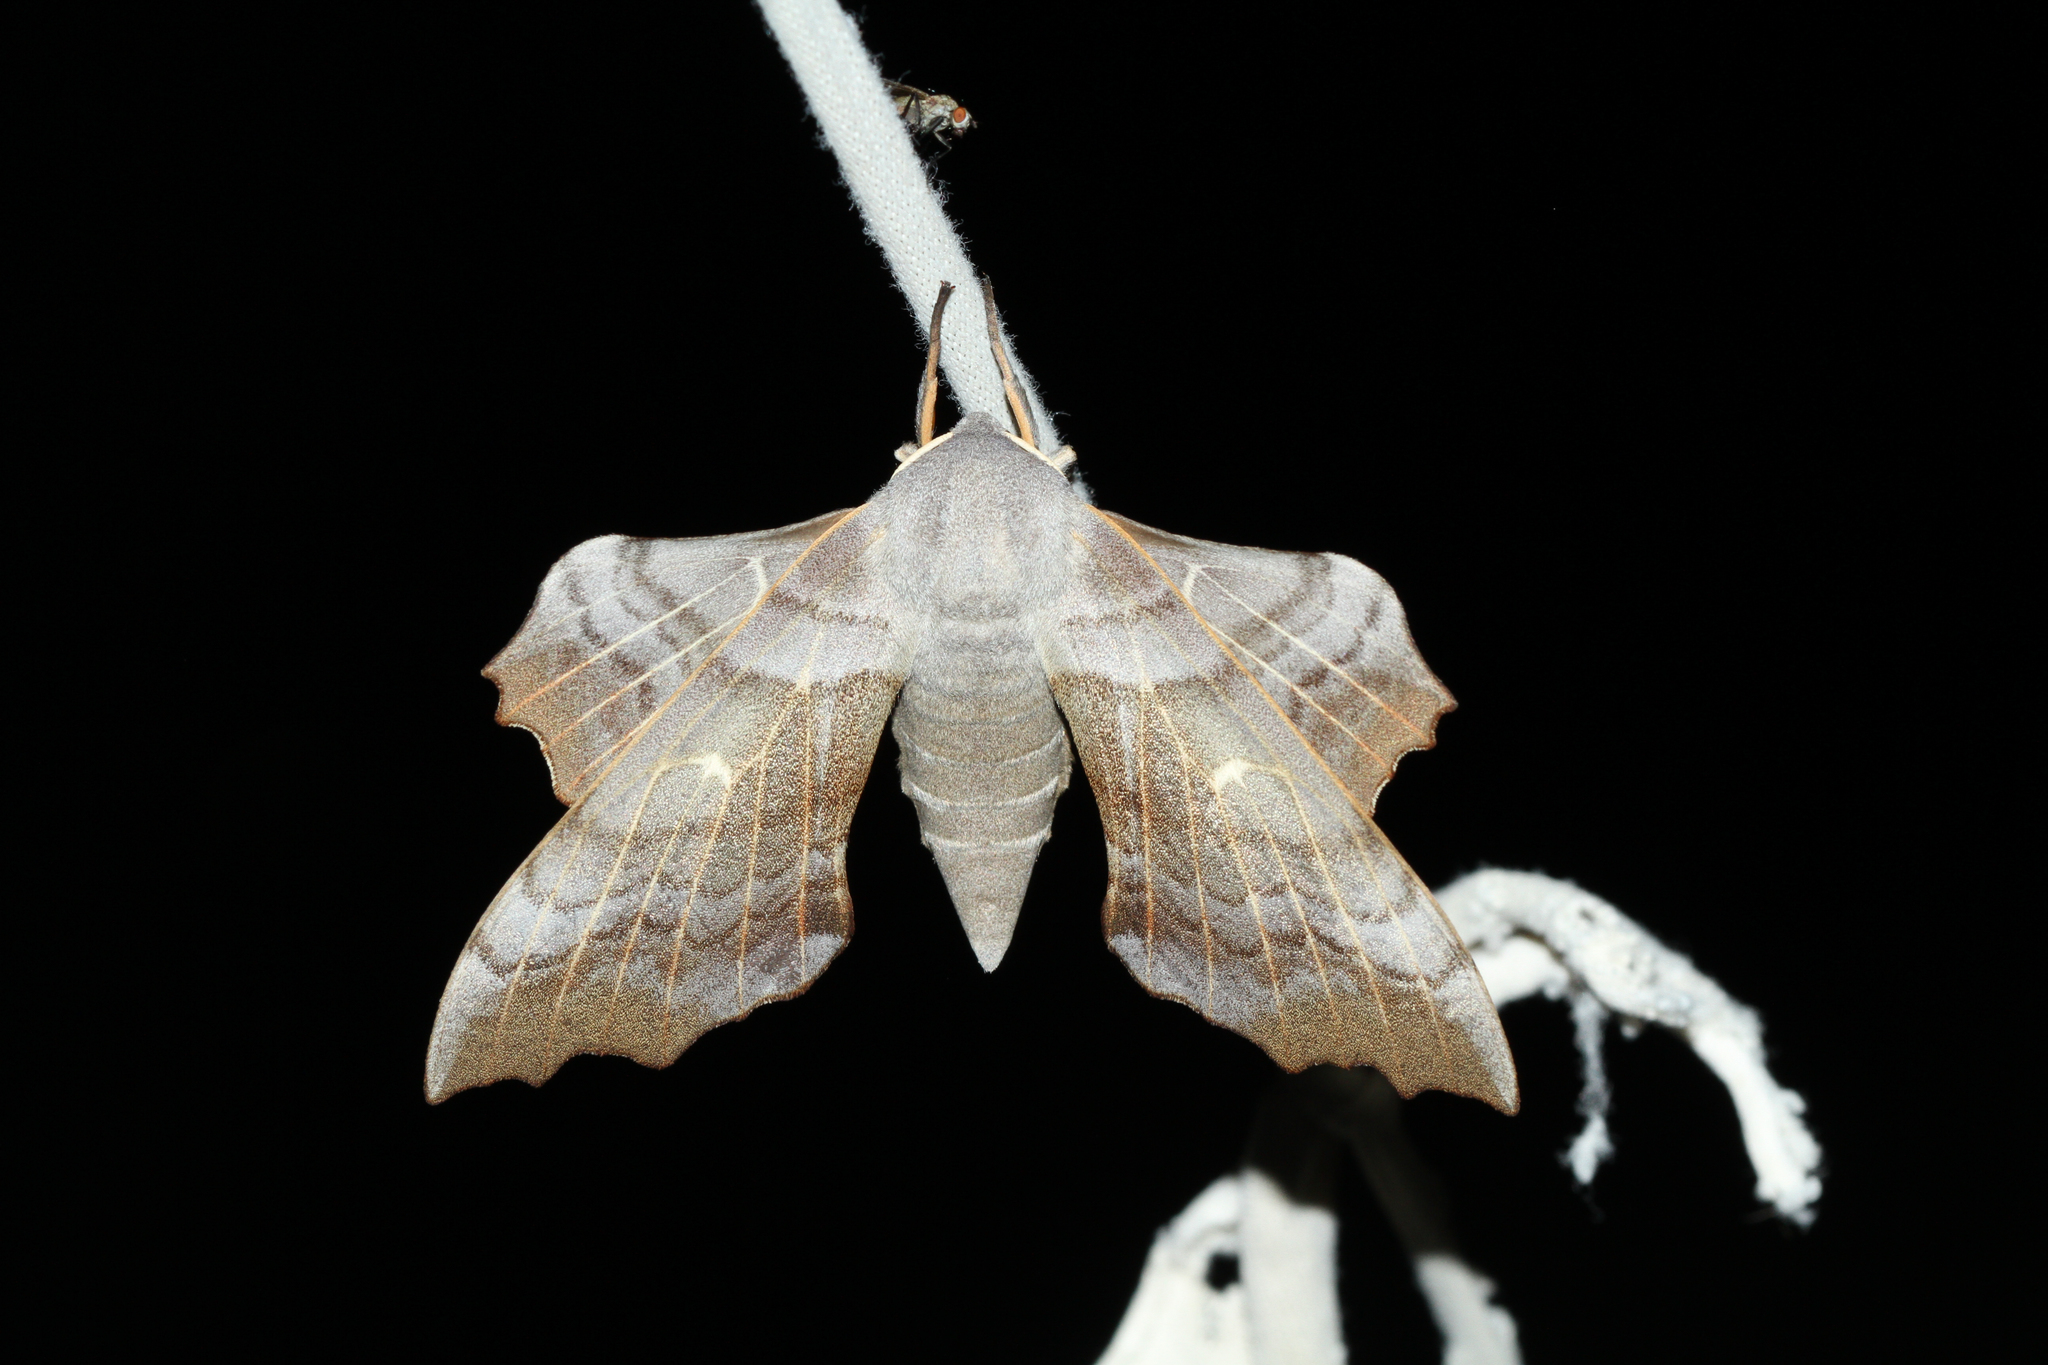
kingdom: Animalia
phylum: Arthropoda
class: Insecta
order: Lepidoptera
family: Sphingidae
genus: Laothoe
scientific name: Laothoe populi
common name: Poplar hawk-moth
